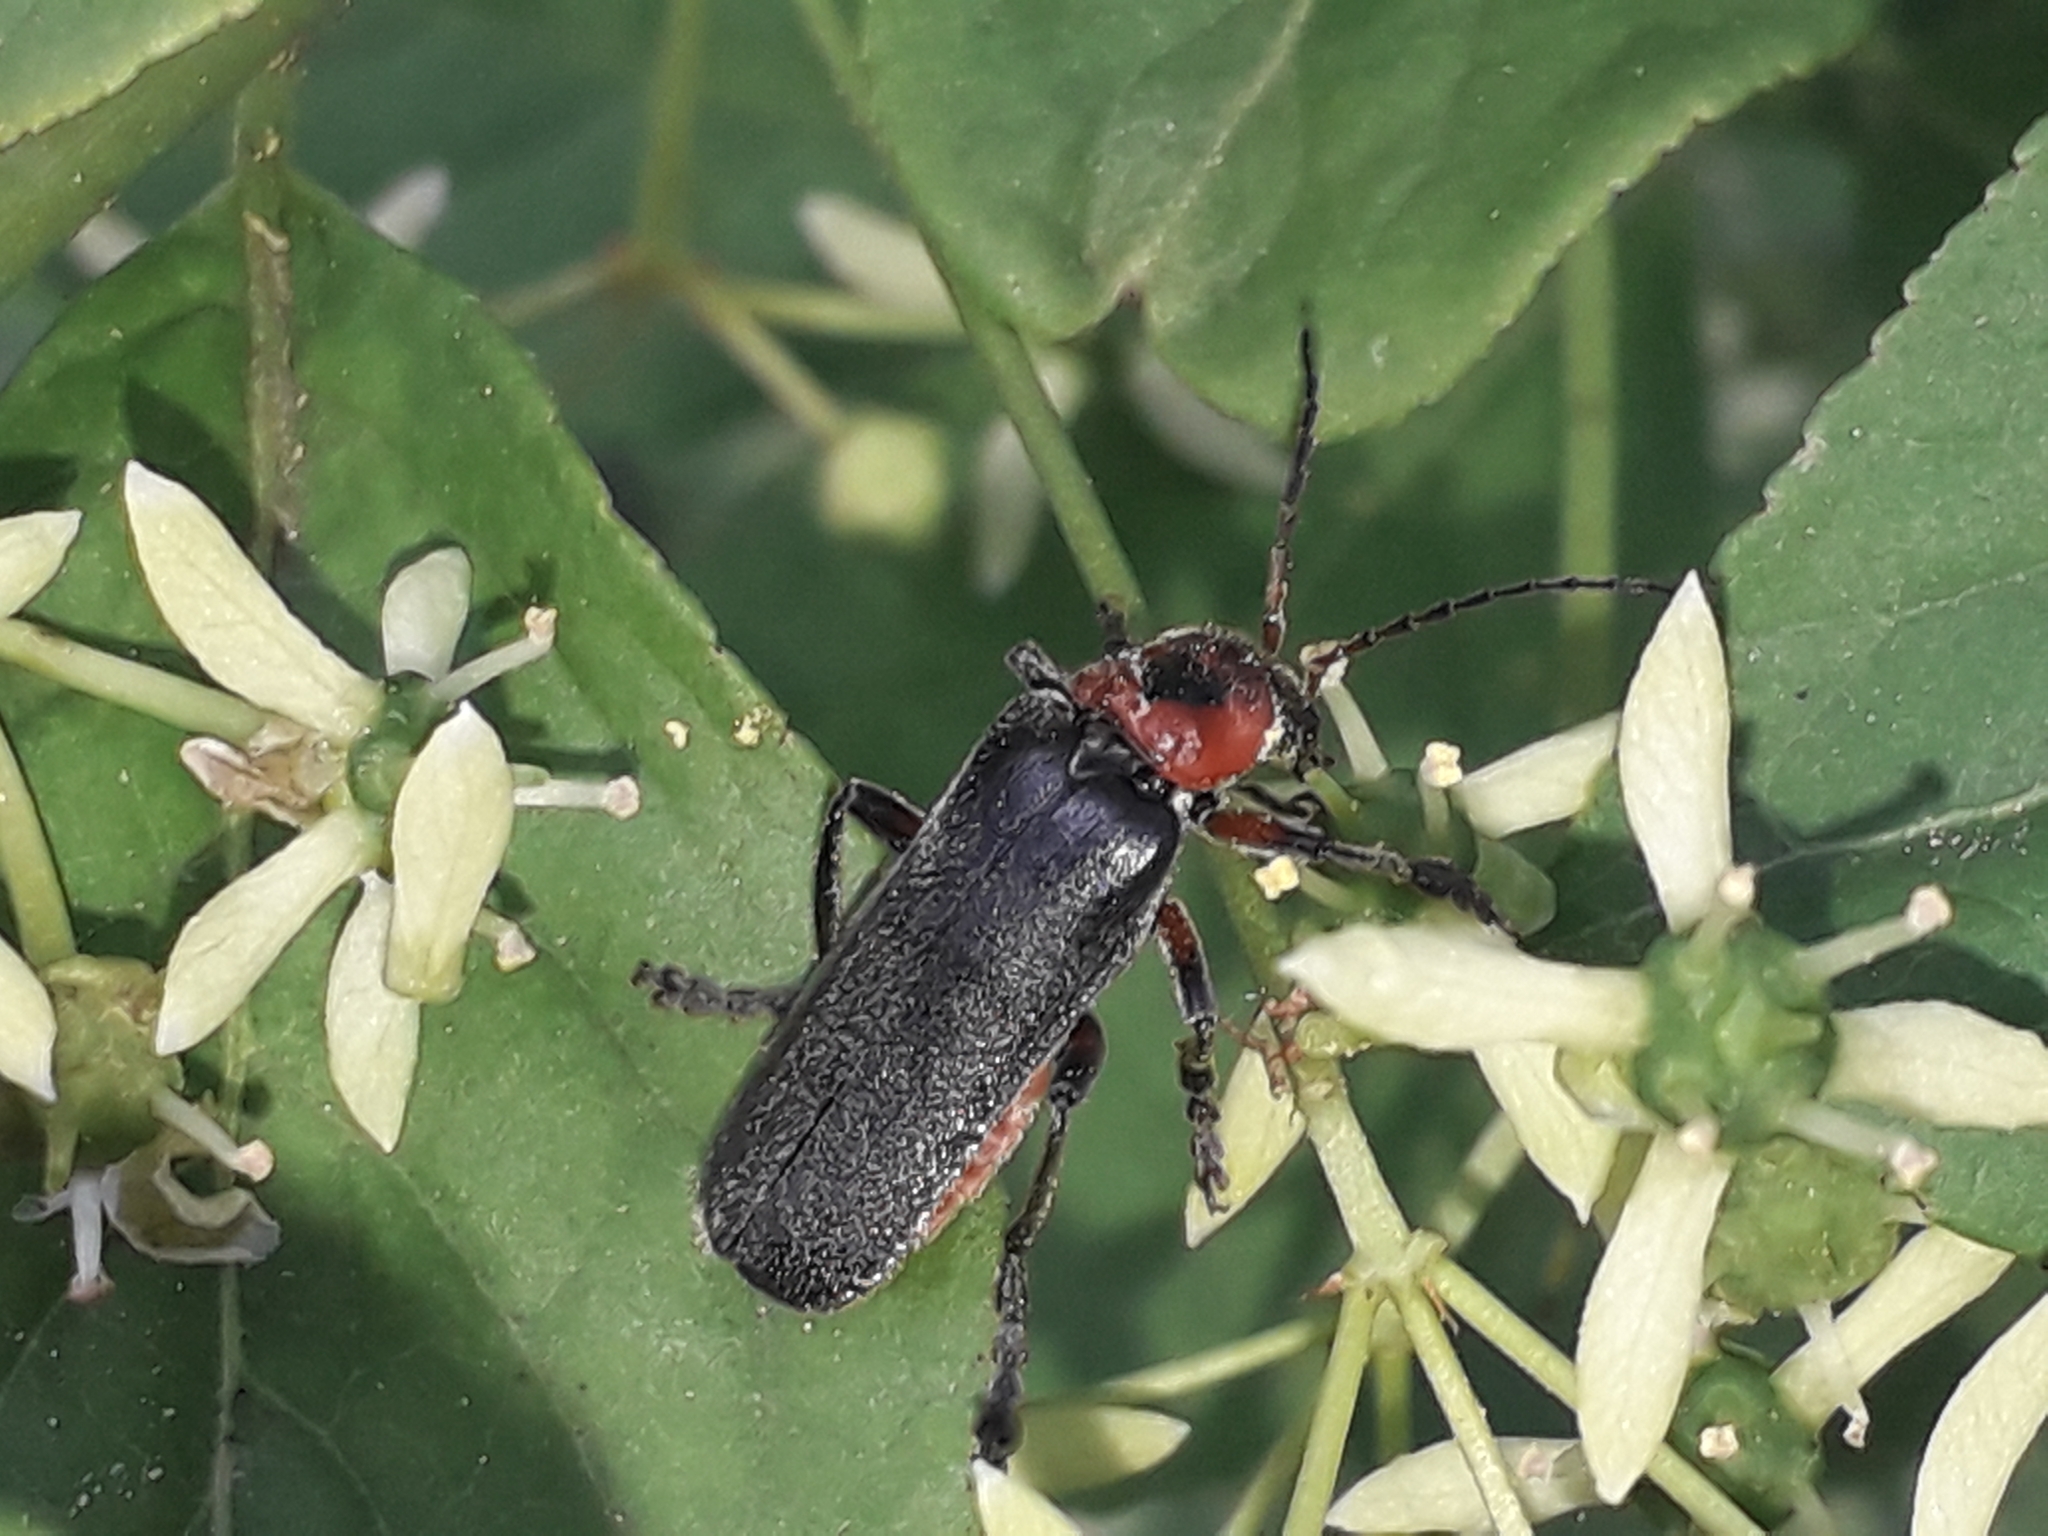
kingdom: Animalia
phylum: Arthropoda
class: Insecta
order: Coleoptera
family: Cantharidae
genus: Cantharis
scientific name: Cantharis rustica
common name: Soldier beetle
